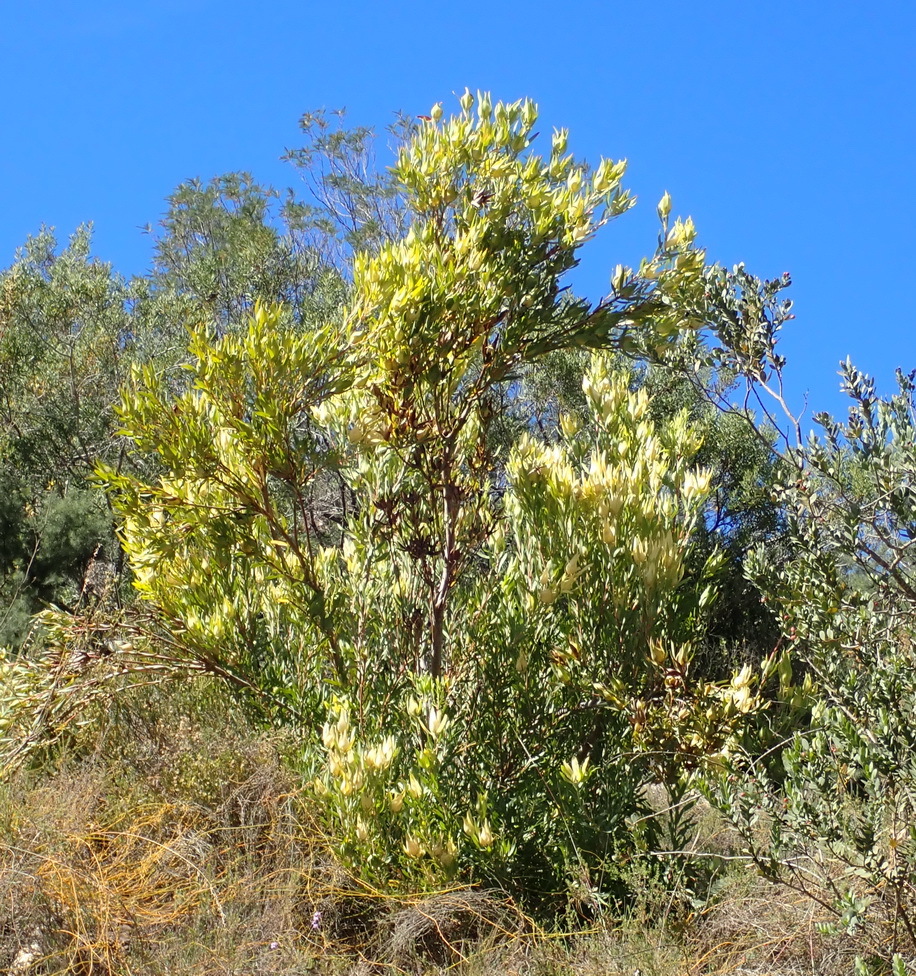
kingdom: Plantae
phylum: Tracheophyta
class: Magnoliopsida
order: Proteales
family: Proteaceae
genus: Leucadendron
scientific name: Leucadendron salignum
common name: Common sunshine conebush
